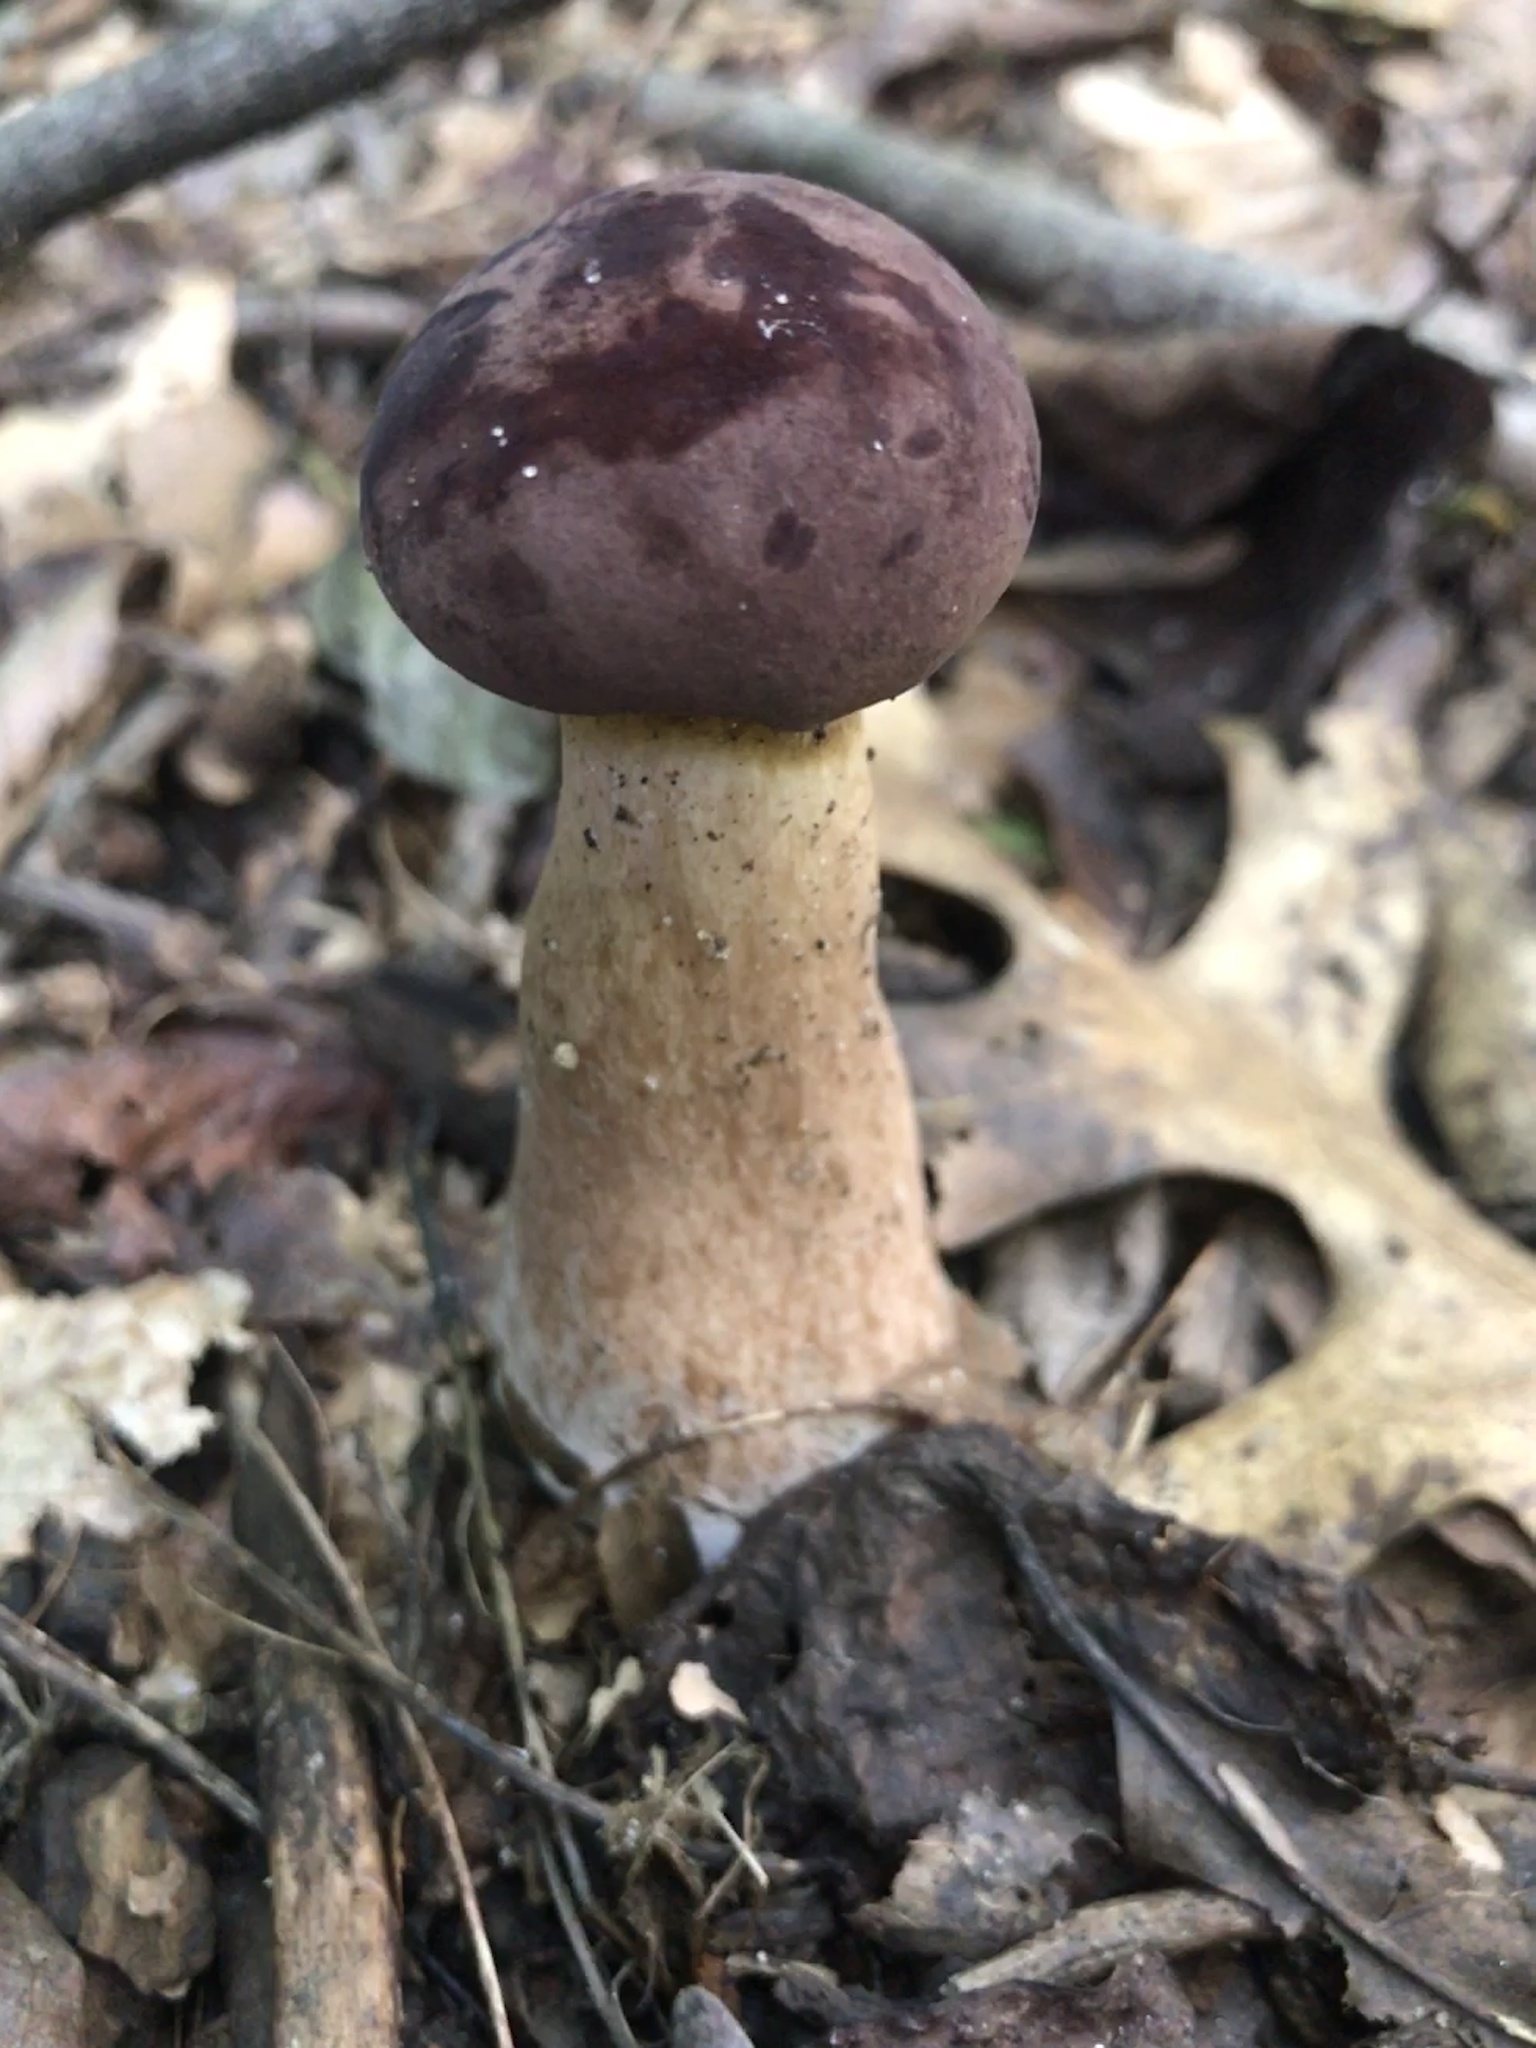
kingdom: Fungi
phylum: Basidiomycota
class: Agaricomycetes
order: Boletales
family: Boletaceae
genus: Tylopilus
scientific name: Tylopilus rubrobrunneus
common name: Reddish brown bitter bolete
